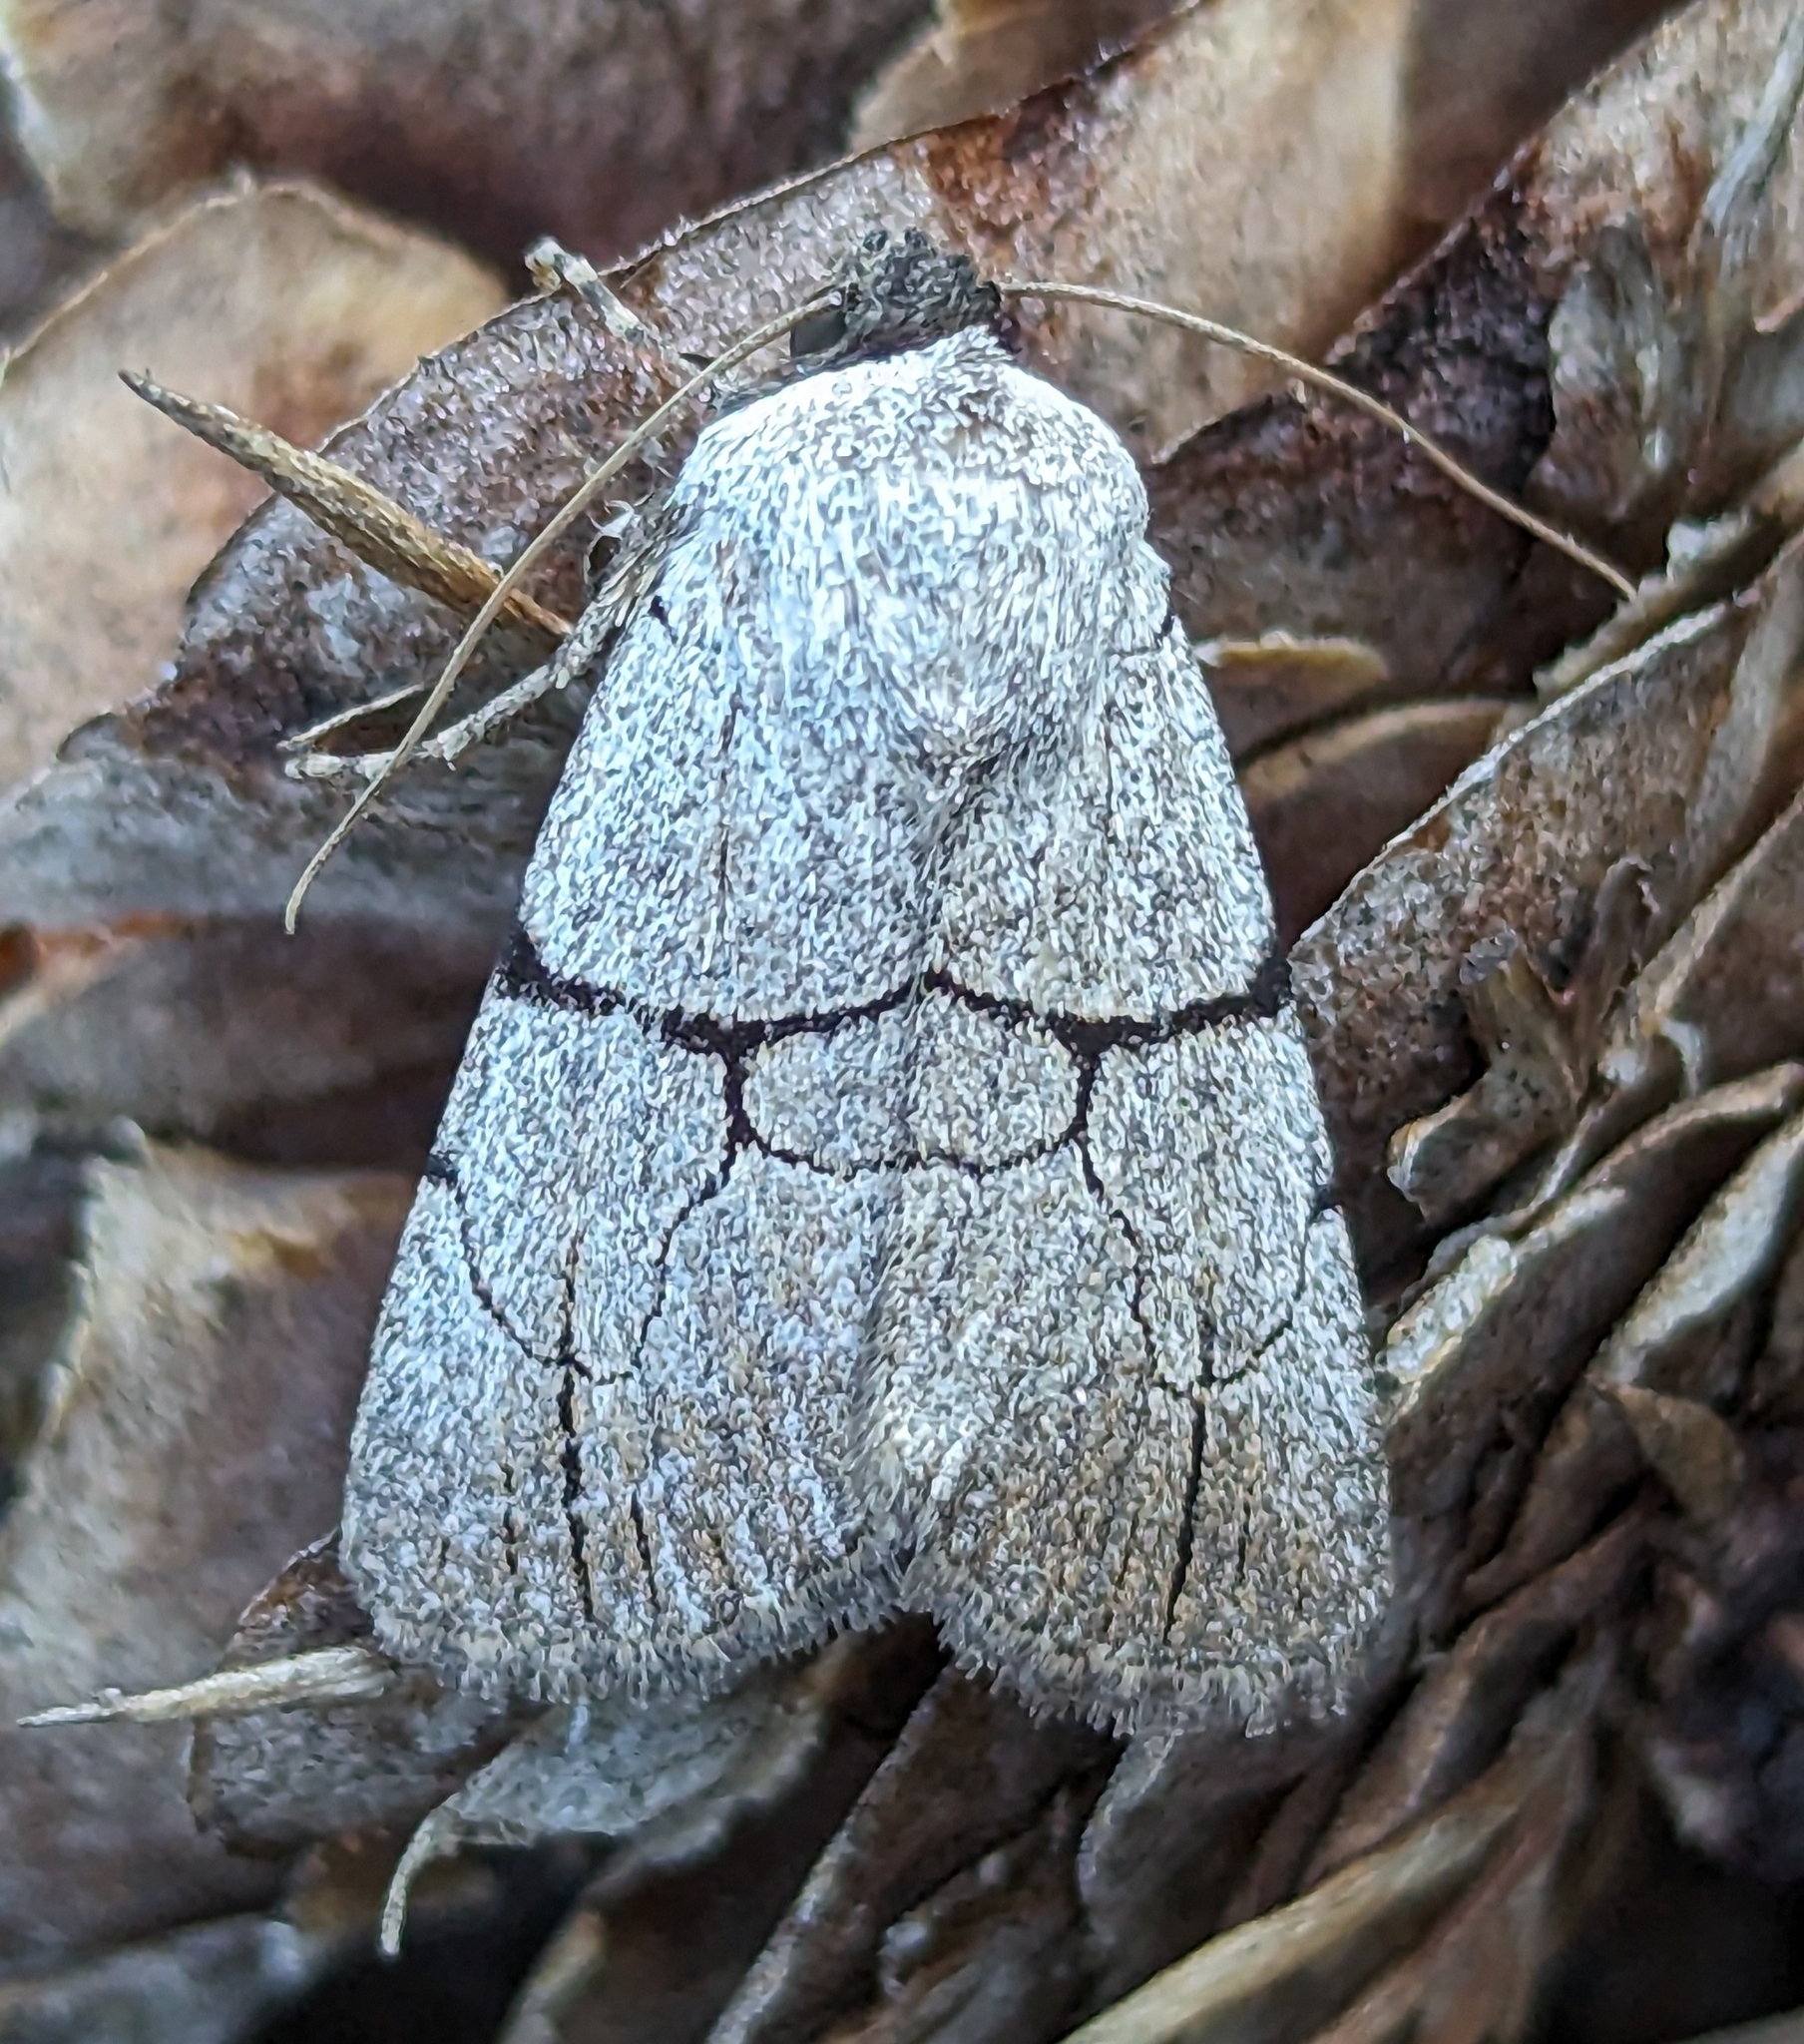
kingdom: Animalia
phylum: Arthropoda
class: Insecta
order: Lepidoptera
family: Noctuidae
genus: Sympistis
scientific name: Sympistis greyi
